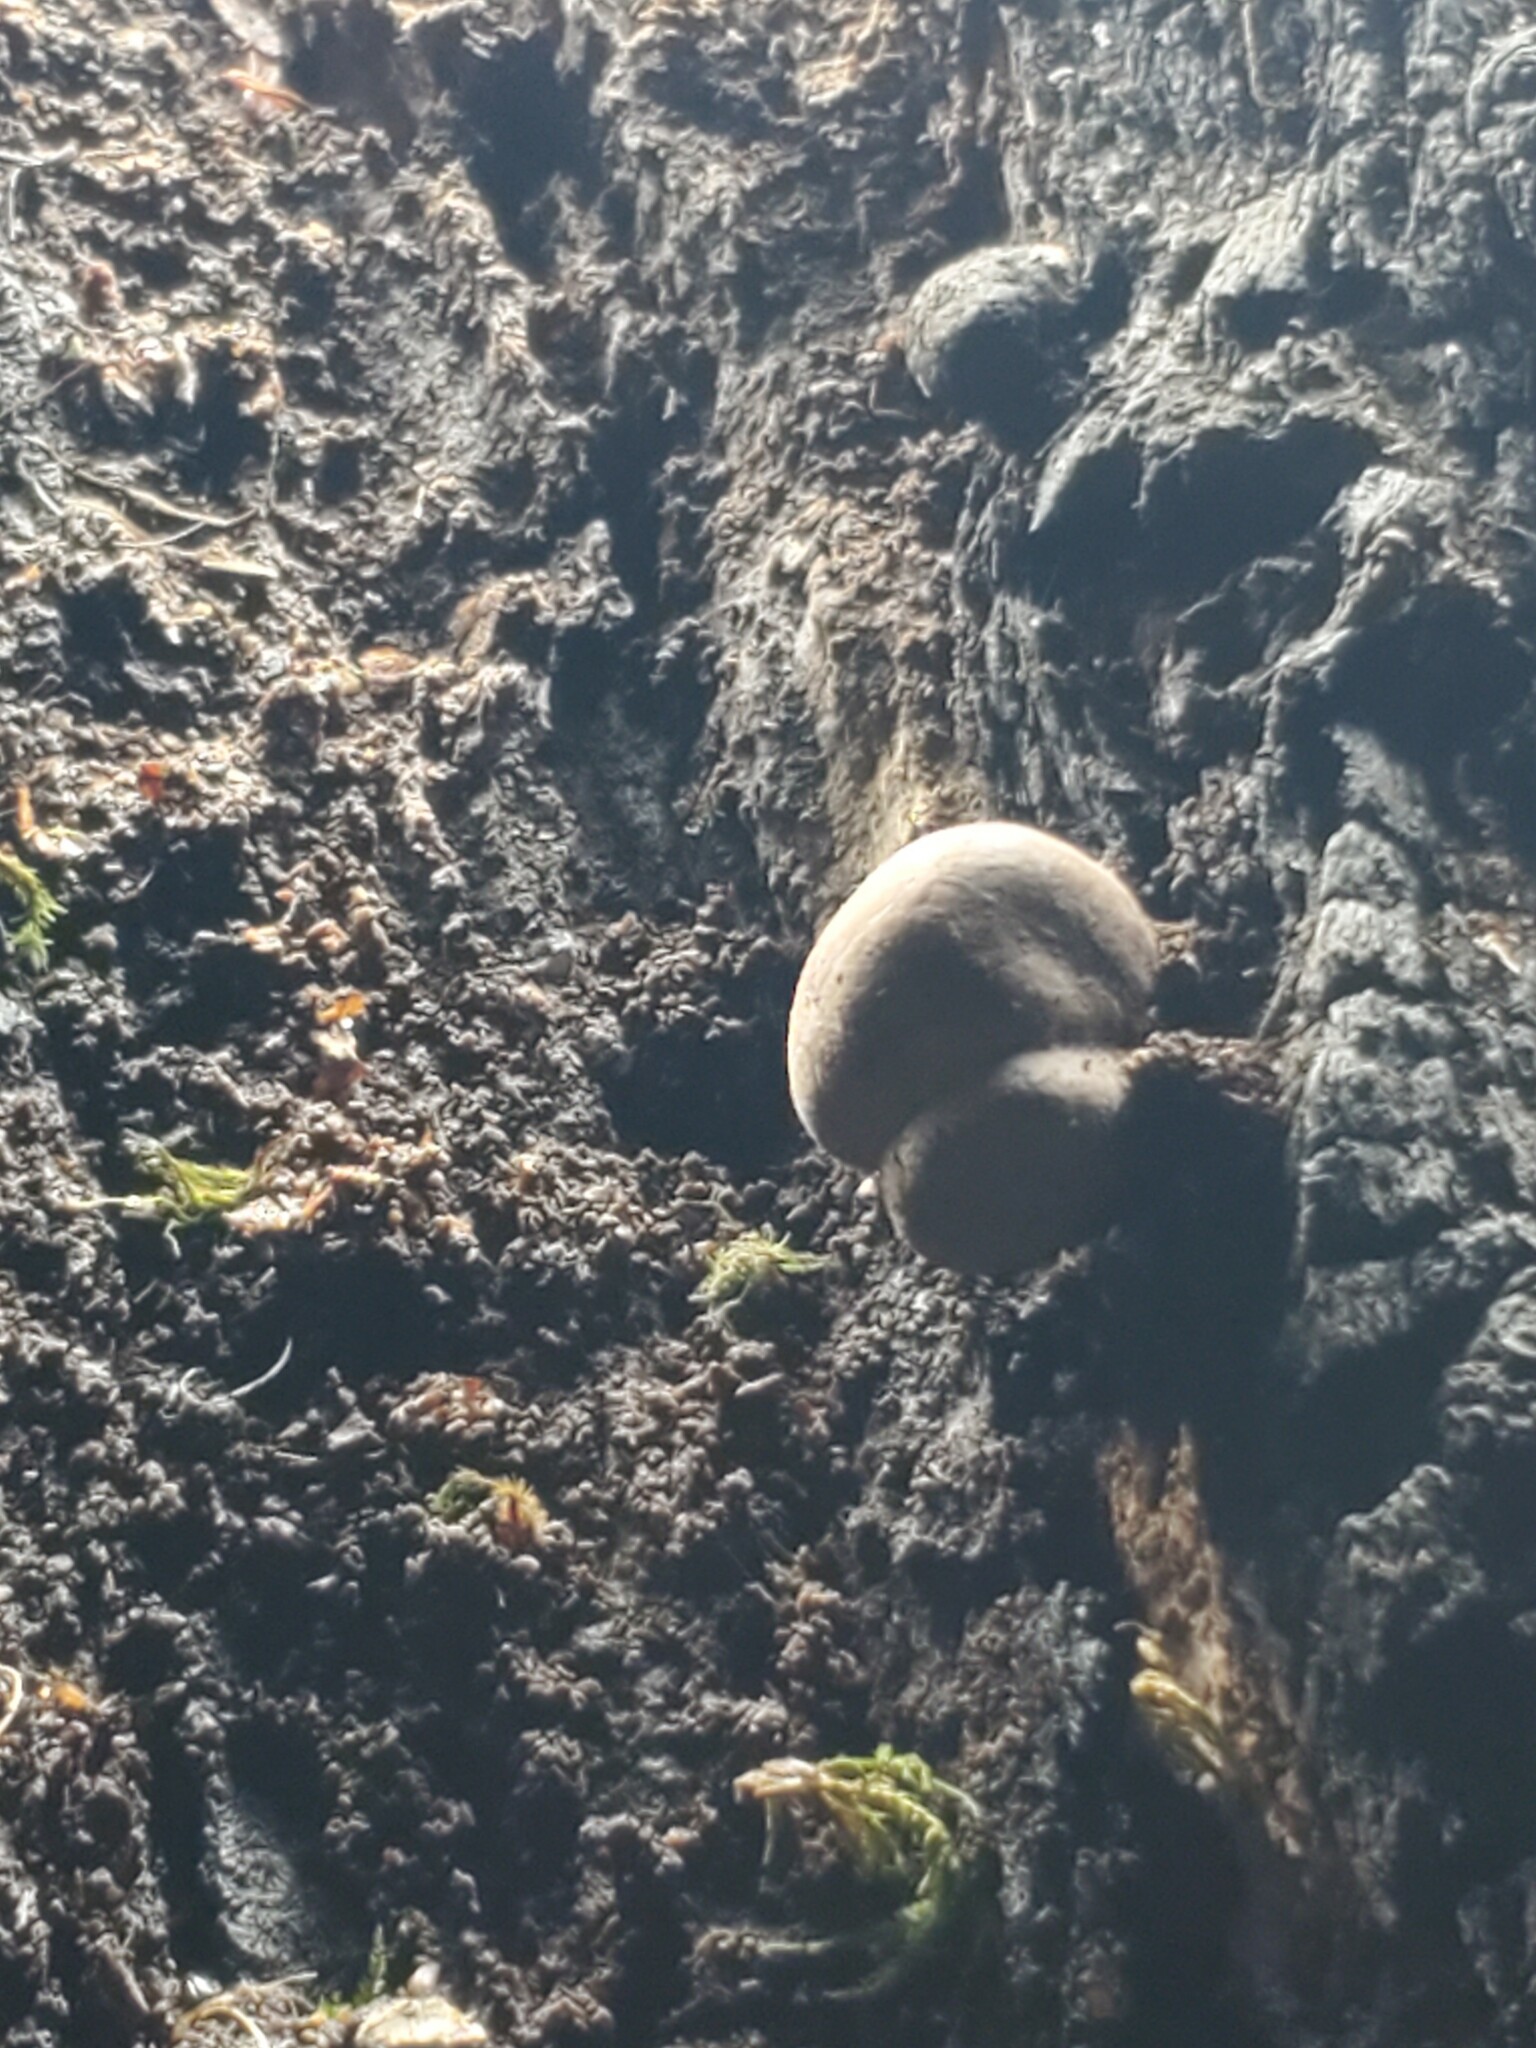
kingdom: Fungi
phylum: Ascomycota
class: Sordariomycetes
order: Xylariales
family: Hypoxylaceae
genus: Daldinia
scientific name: Daldinia grandis
